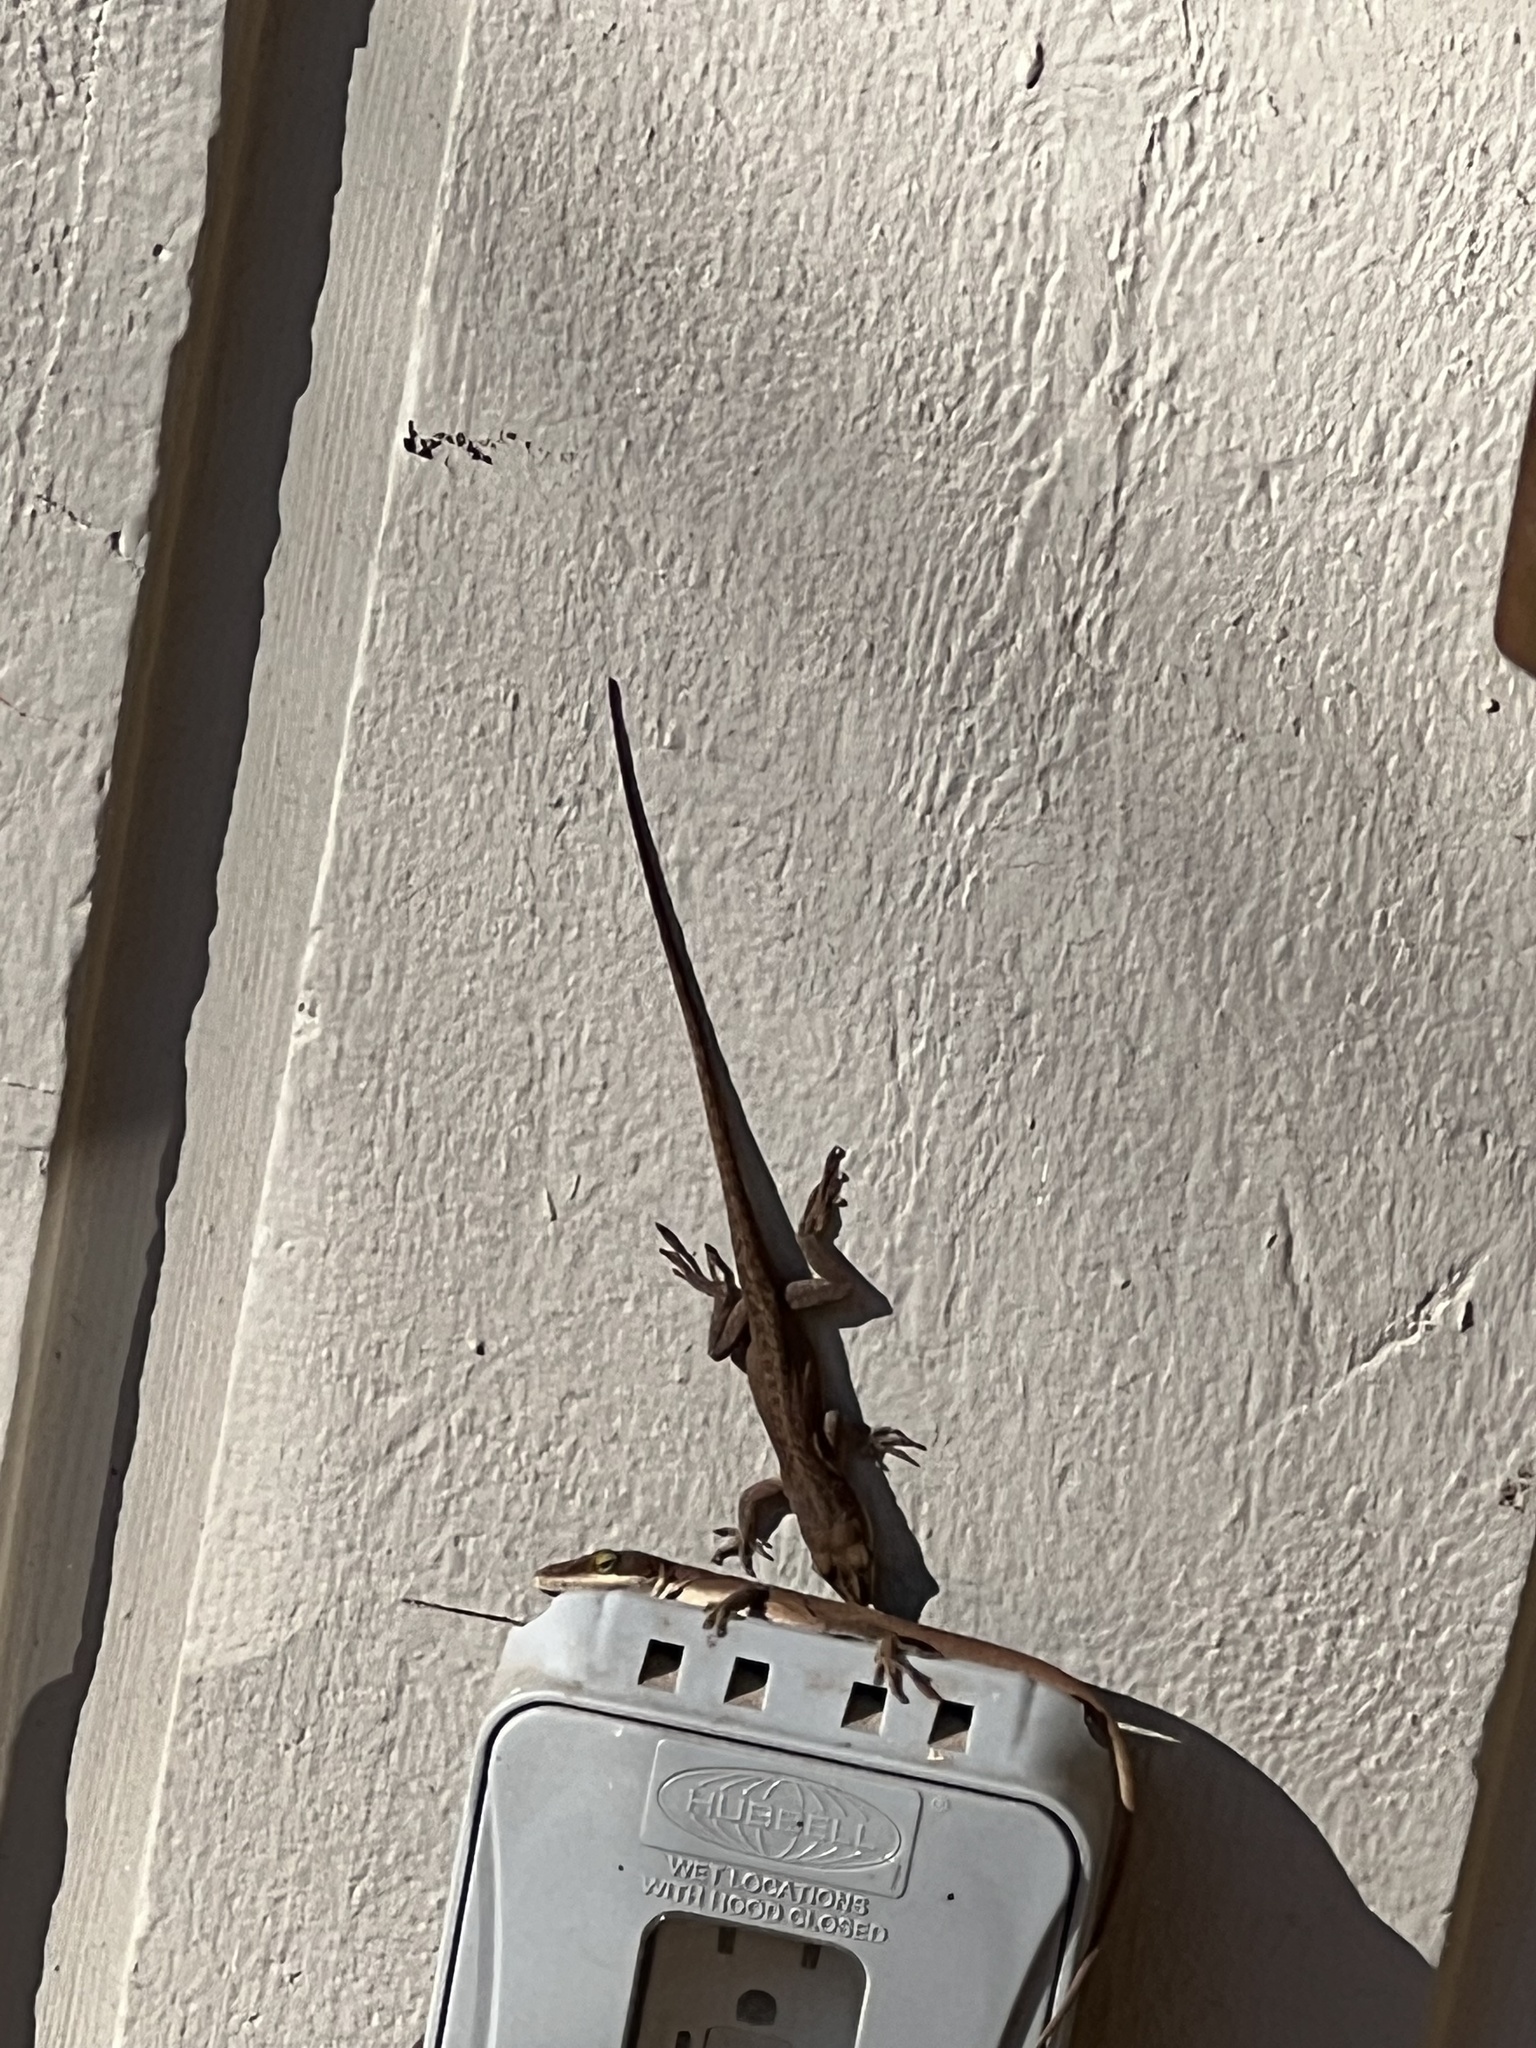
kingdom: Animalia
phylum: Chordata
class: Squamata
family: Dactyloidae
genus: Anolis
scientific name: Anolis carolinensis
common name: Green anole
